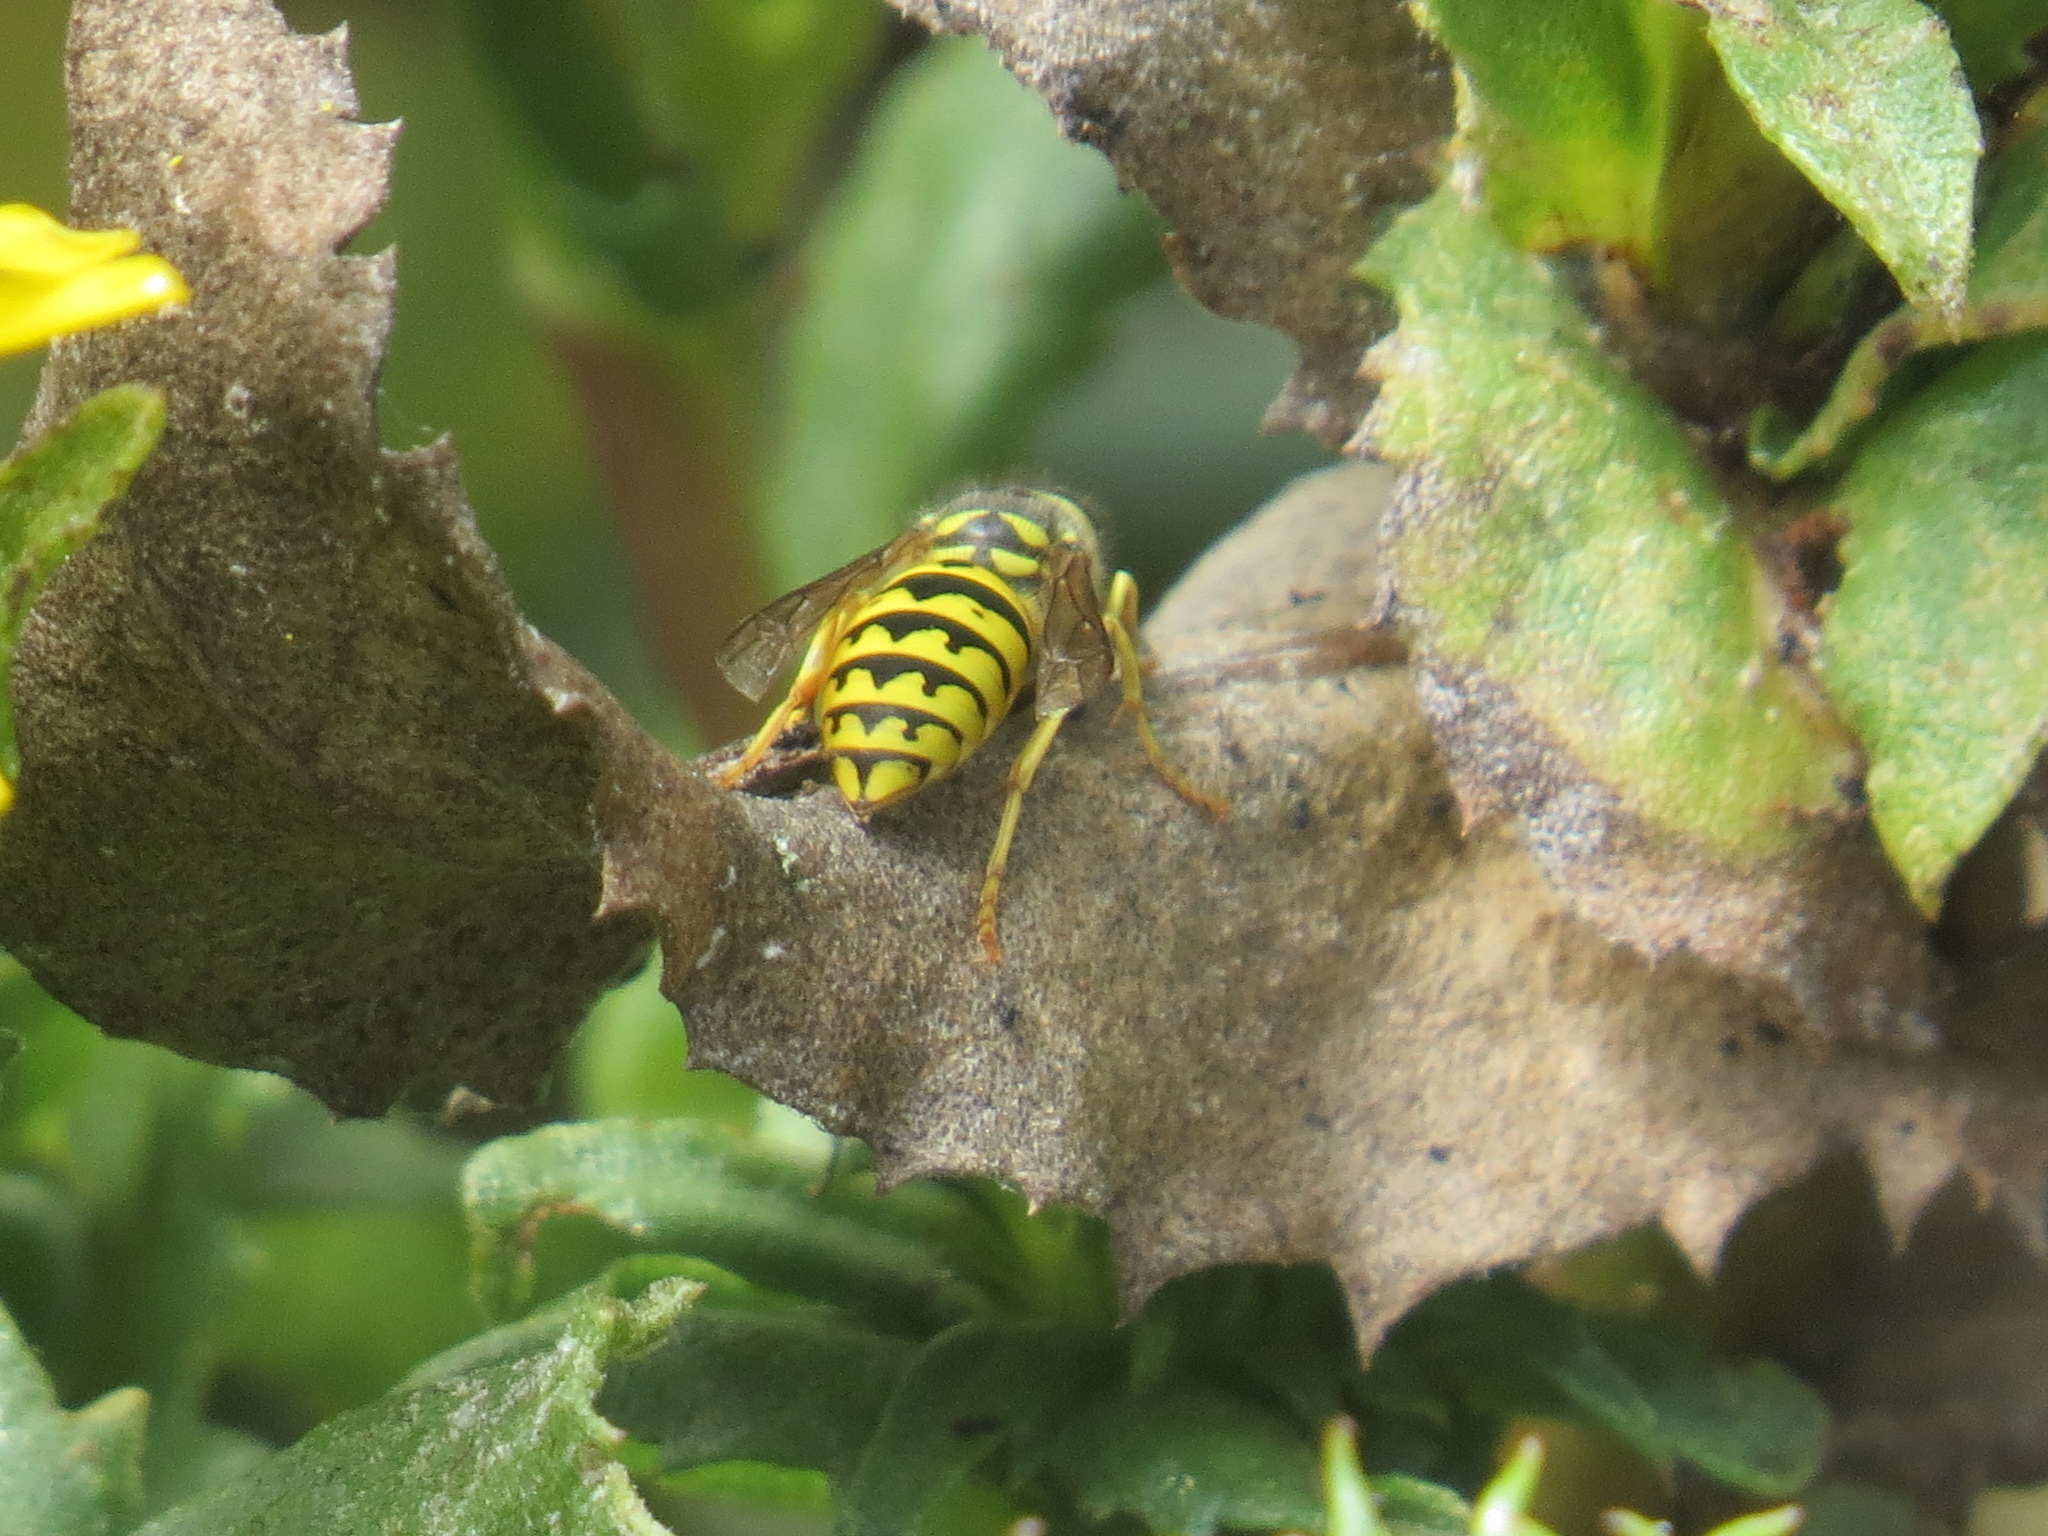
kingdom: Animalia
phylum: Arthropoda
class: Insecta
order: Hymenoptera
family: Vespidae
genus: Vespula
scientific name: Vespula pensylvanica
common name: Western yellowjacket
